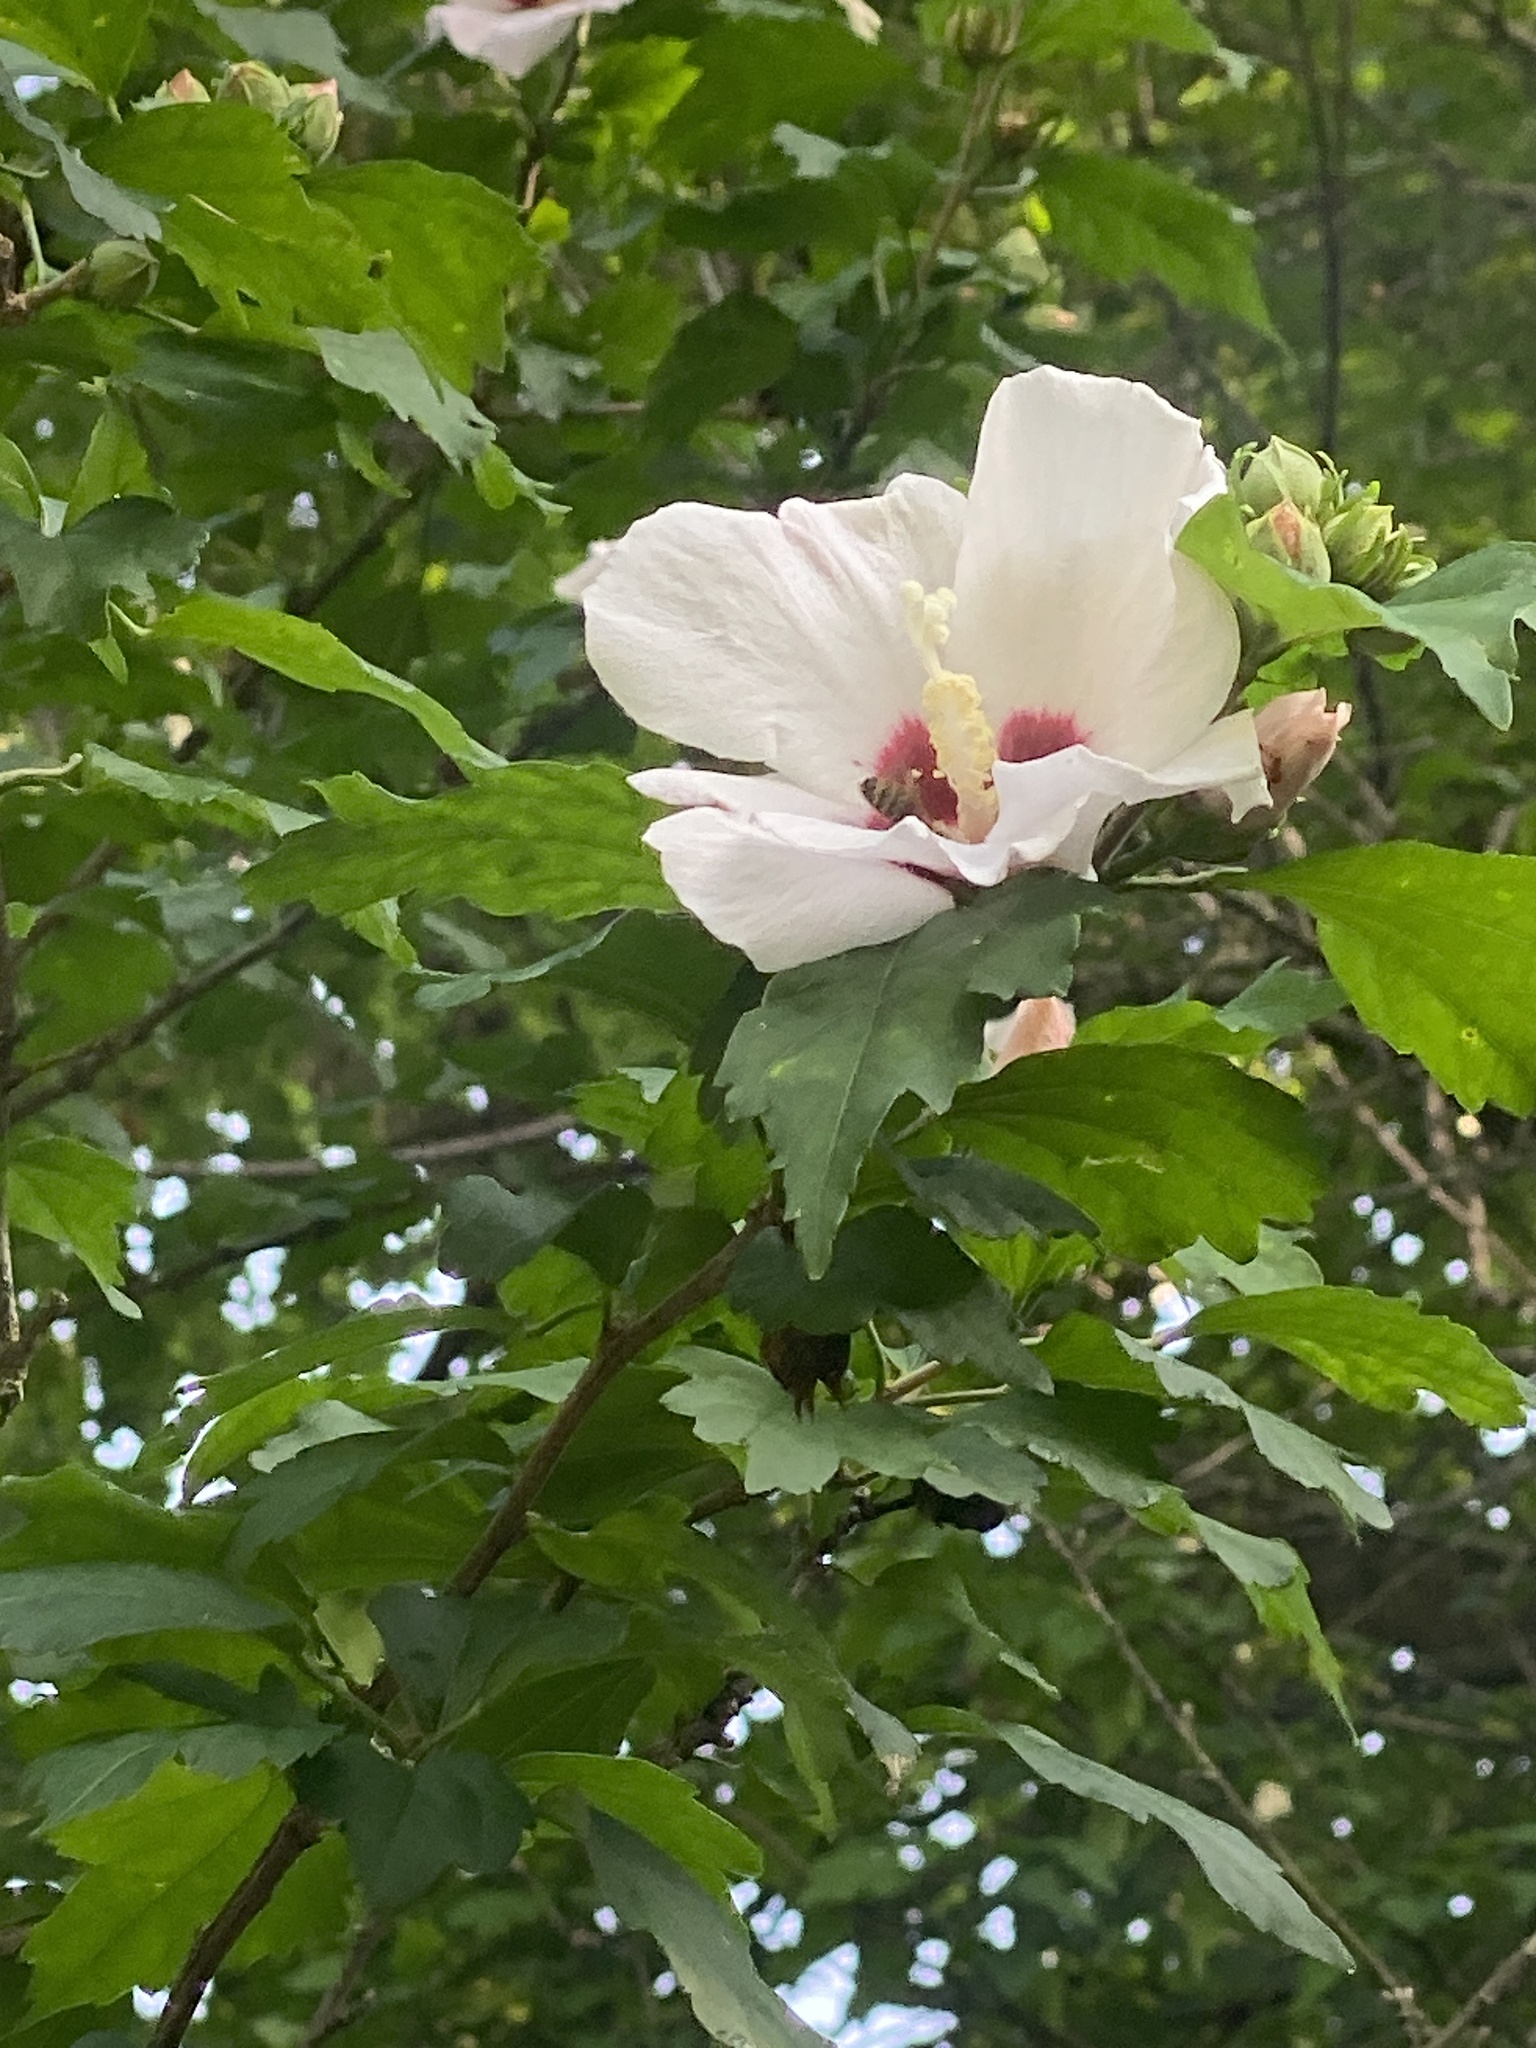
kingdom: Plantae
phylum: Tracheophyta
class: Magnoliopsida
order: Malvales
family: Malvaceae
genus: Hibiscus
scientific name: Hibiscus syriacus
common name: Syrian ketmia
